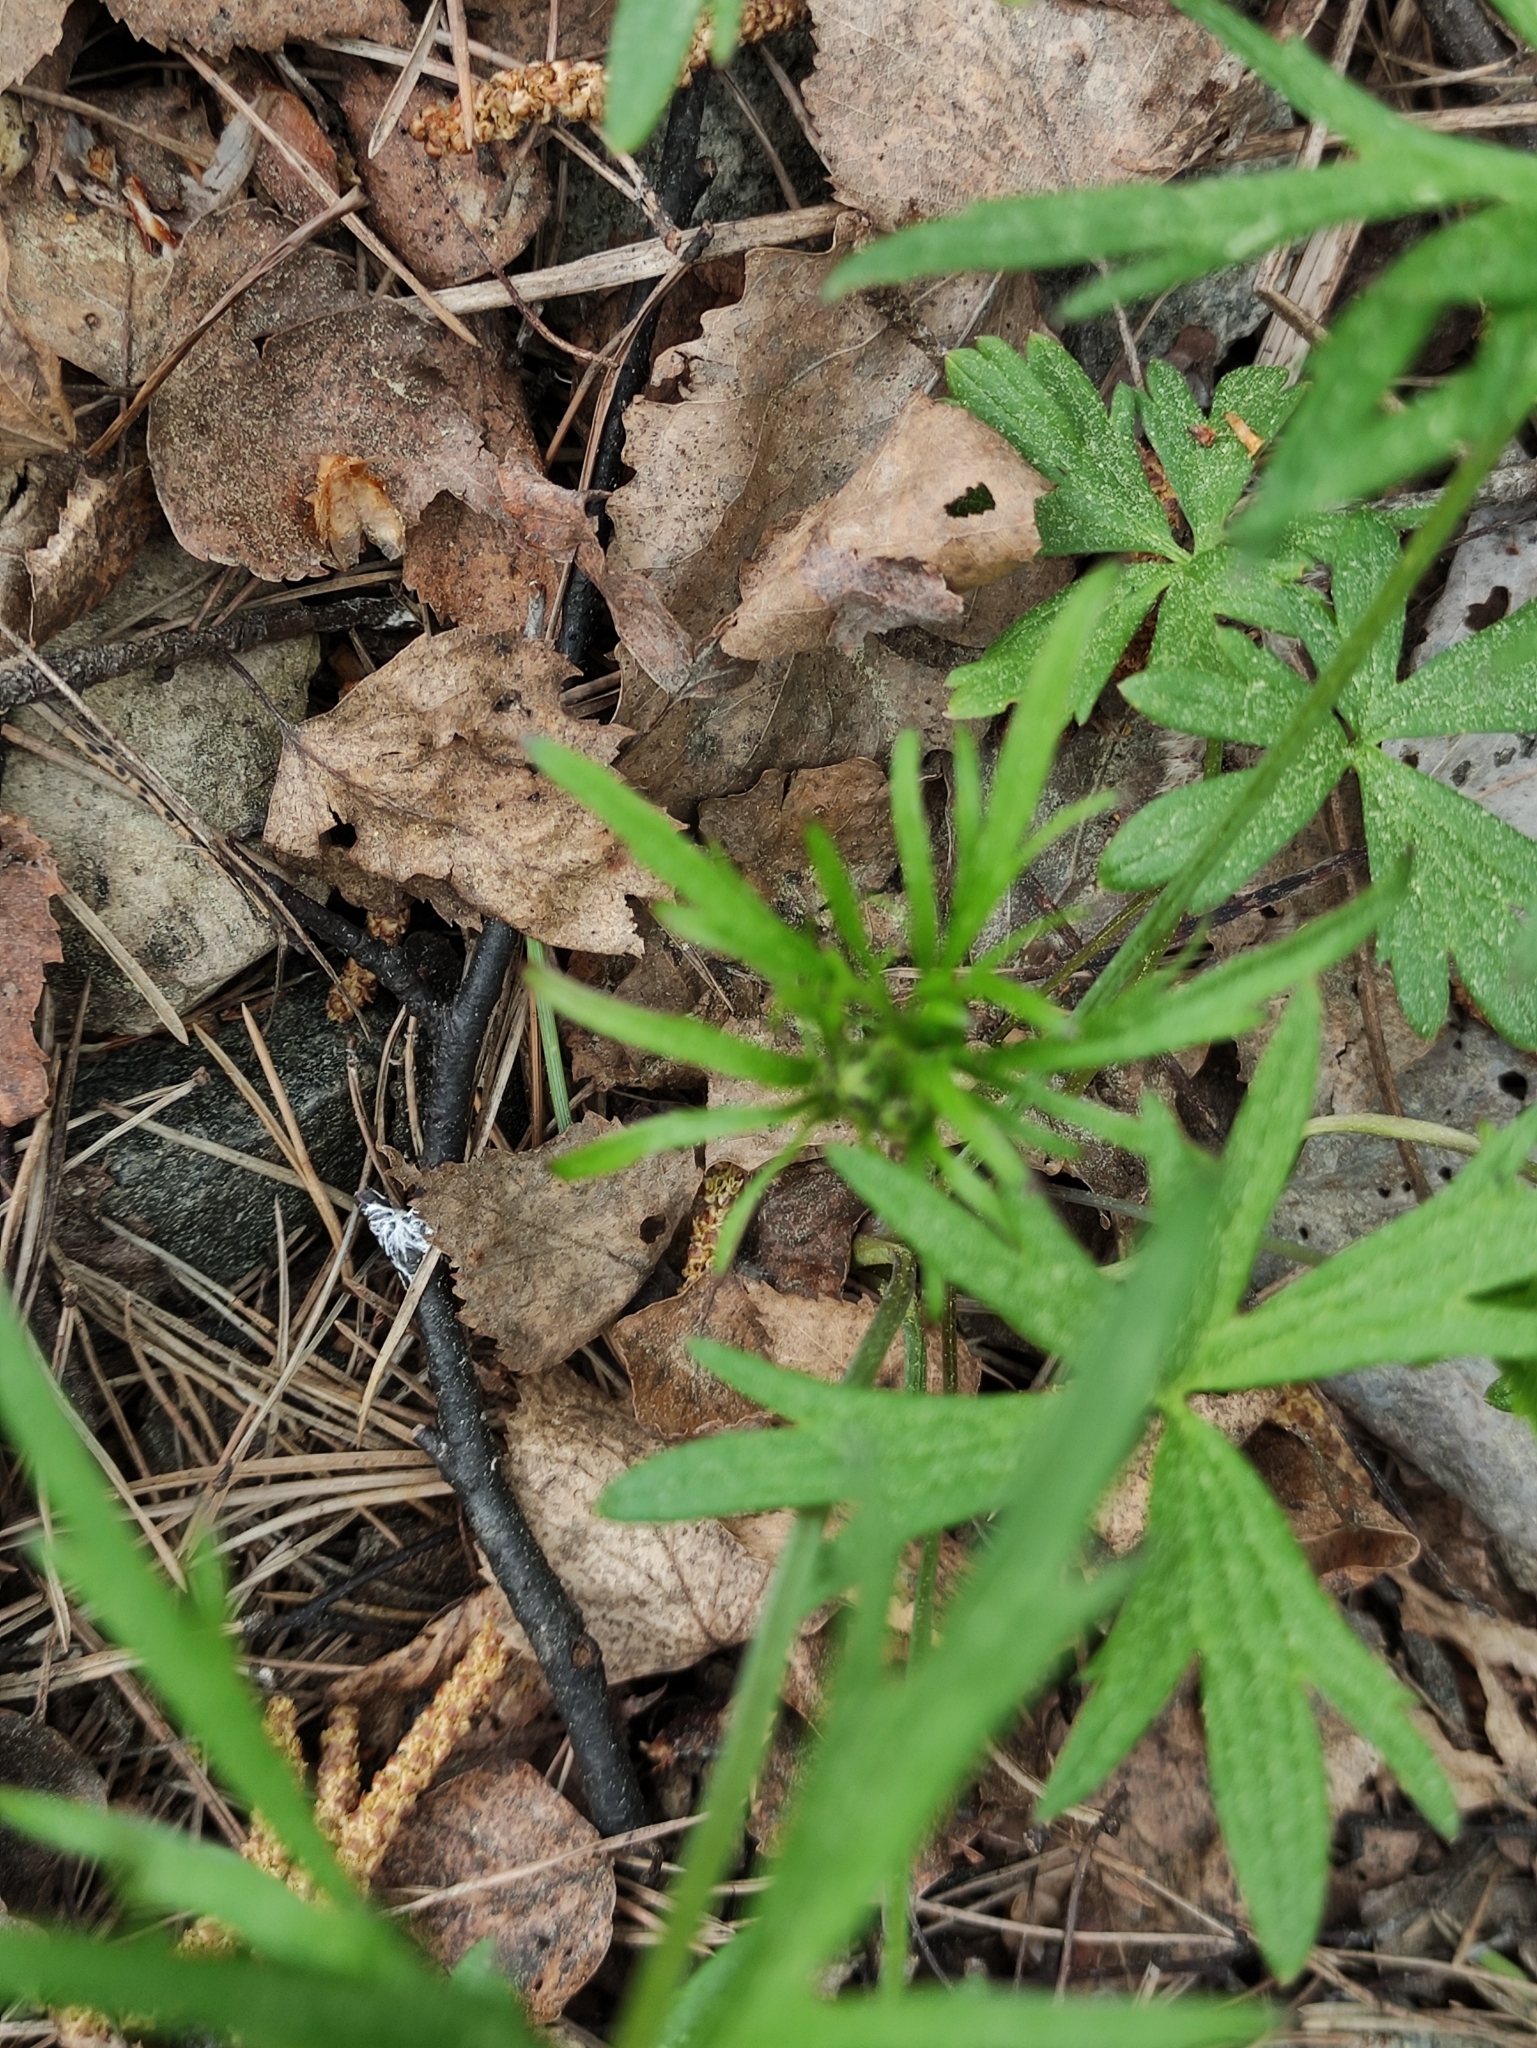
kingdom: Plantae
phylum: Tracheophyta
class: Magnoliopsida
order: Ranunculales
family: Ranunculaceae
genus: Ranunculus
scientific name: Ranunculus acris
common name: Meadow buttercup
